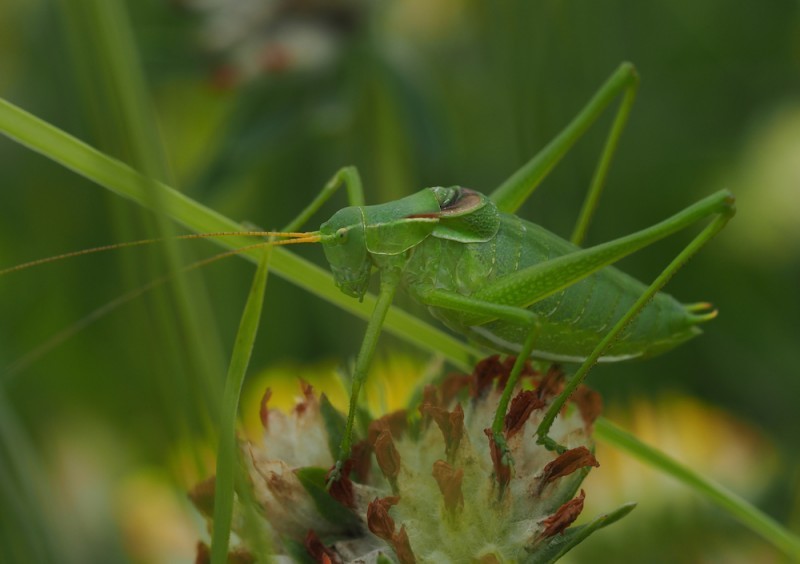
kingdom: Animalia
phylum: Arthropoda
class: Insecta
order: Orthoptera
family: Tettigoniidae
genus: Isophya
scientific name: Isophya costata
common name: Keeled plump bush-cricket
